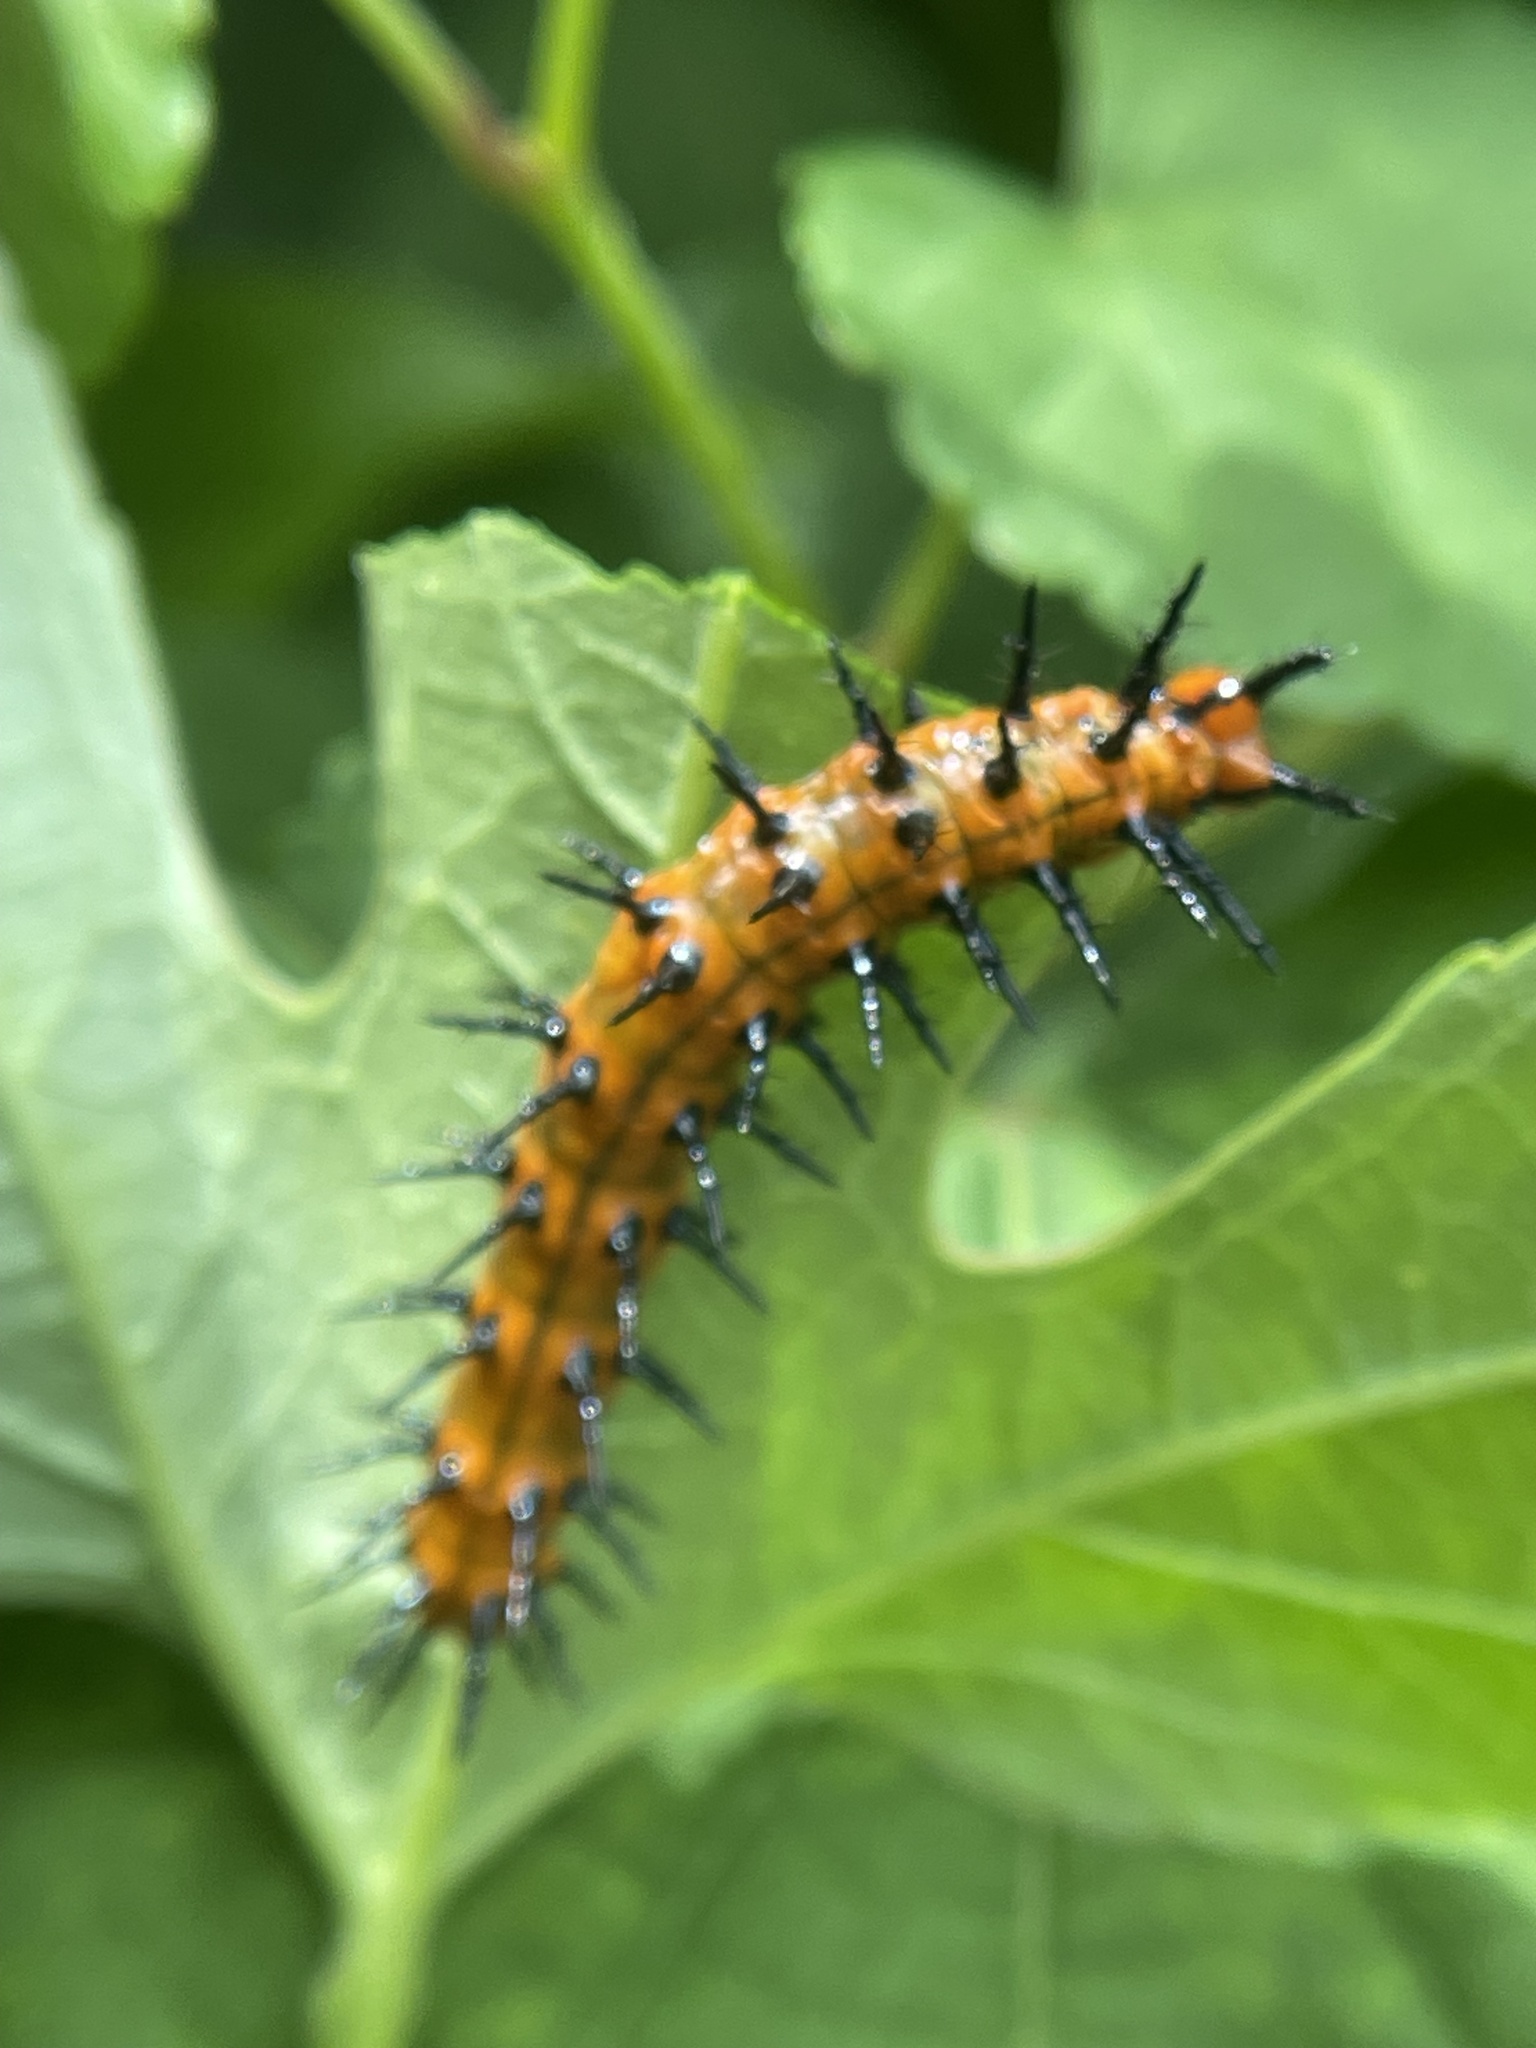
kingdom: Animalia
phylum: Arthropoda
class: Insecta
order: Lepidoptera
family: Nymphalidae
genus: Dione
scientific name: Dione vanillae
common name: Gulf fritillary
